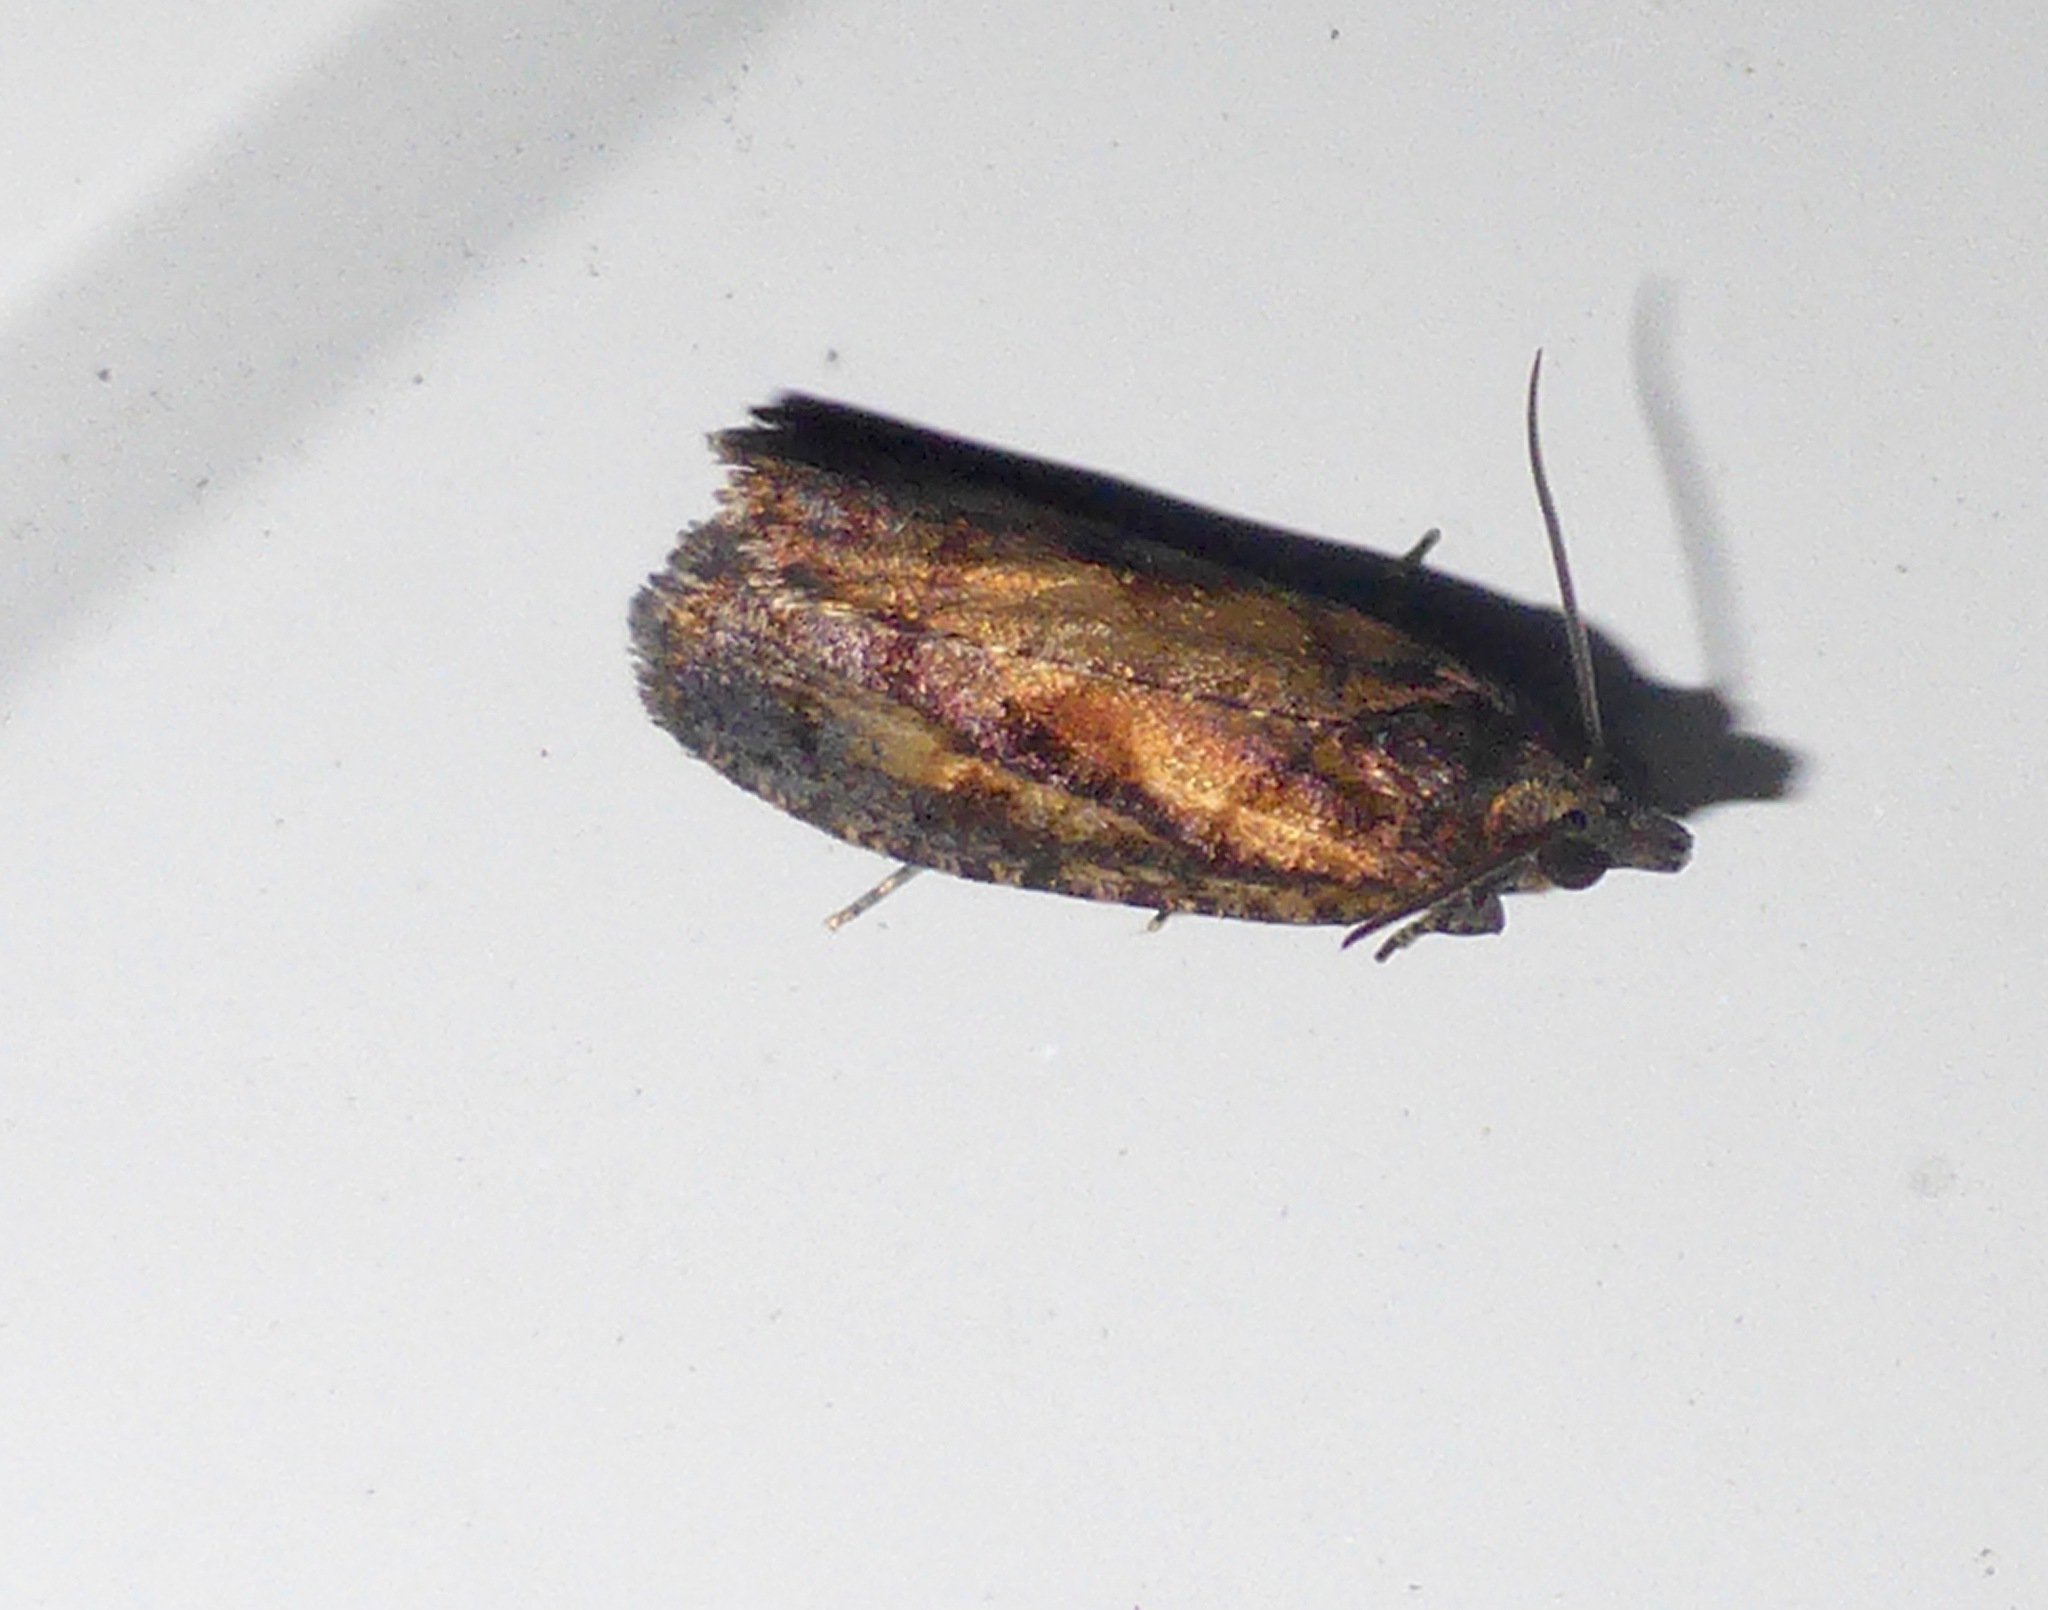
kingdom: Animalia
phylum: Arthropoda
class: Insecta
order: Lepidoptera
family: Tortricidae
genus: Cryptaspasma
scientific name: Cryptaspasma querula
